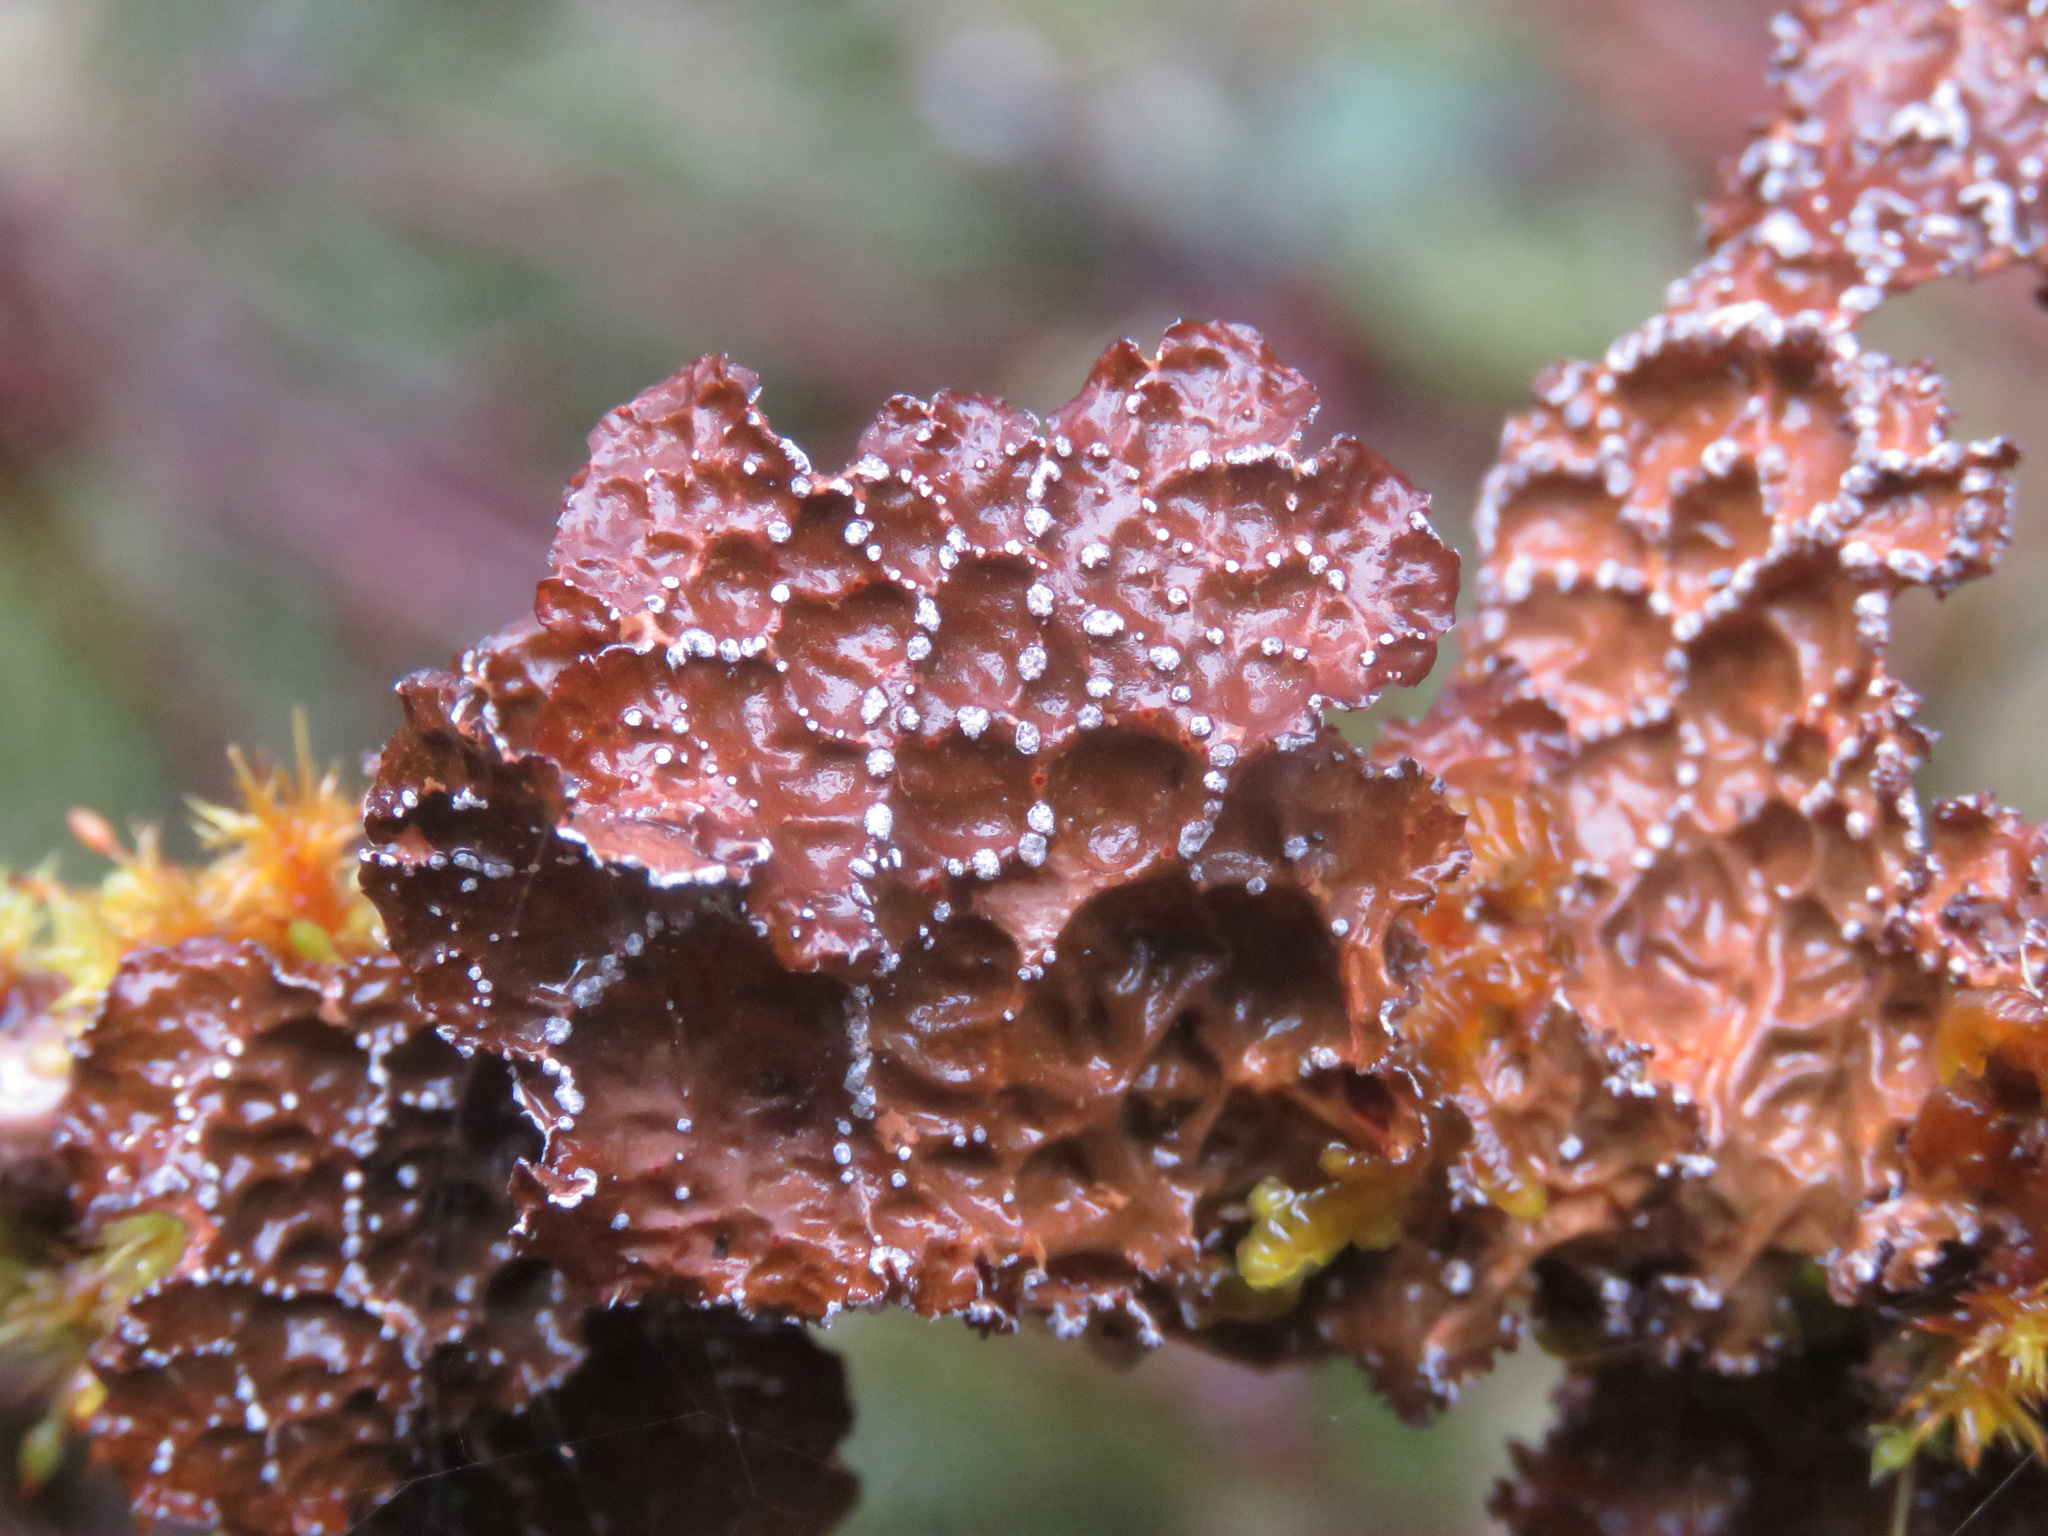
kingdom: Fungi
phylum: Ascomycota
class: Lecanoromycetes
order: Peltigerales
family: Lobariaceae
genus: Lobaria
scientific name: Lobaria anomala
